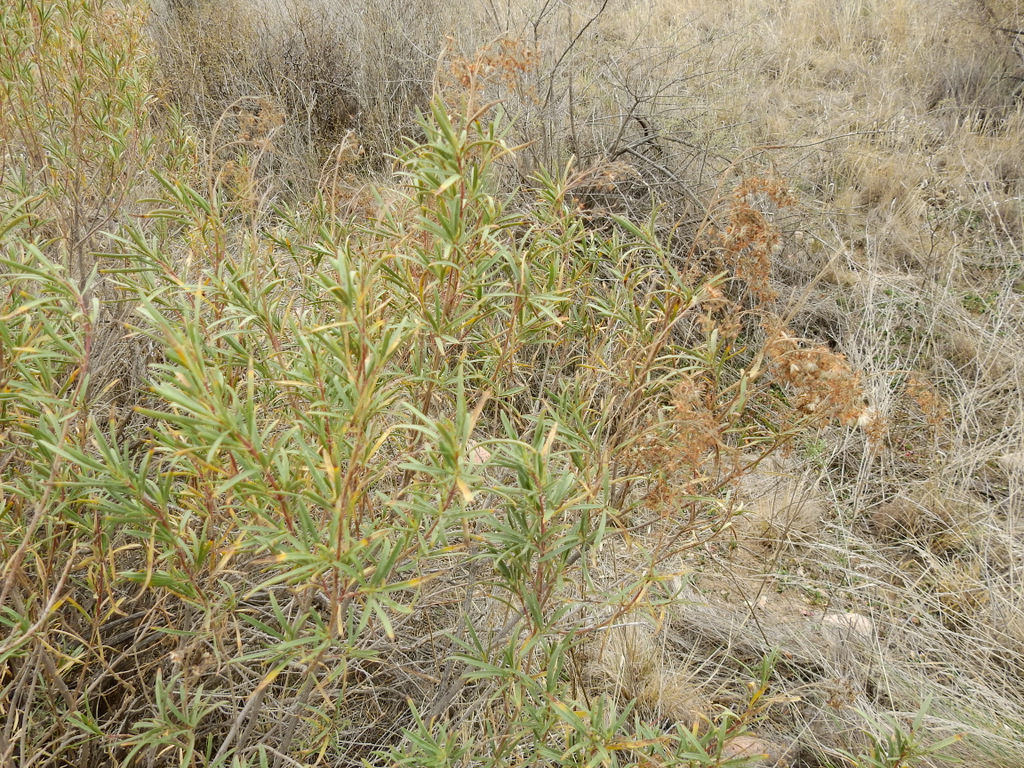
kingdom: Plantae
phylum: Tracheophyta
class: Magnoliopsida
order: Asterales
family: Asteraceae
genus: Baccharis
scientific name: Baccharis salicifolia
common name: Sticky baccharis
